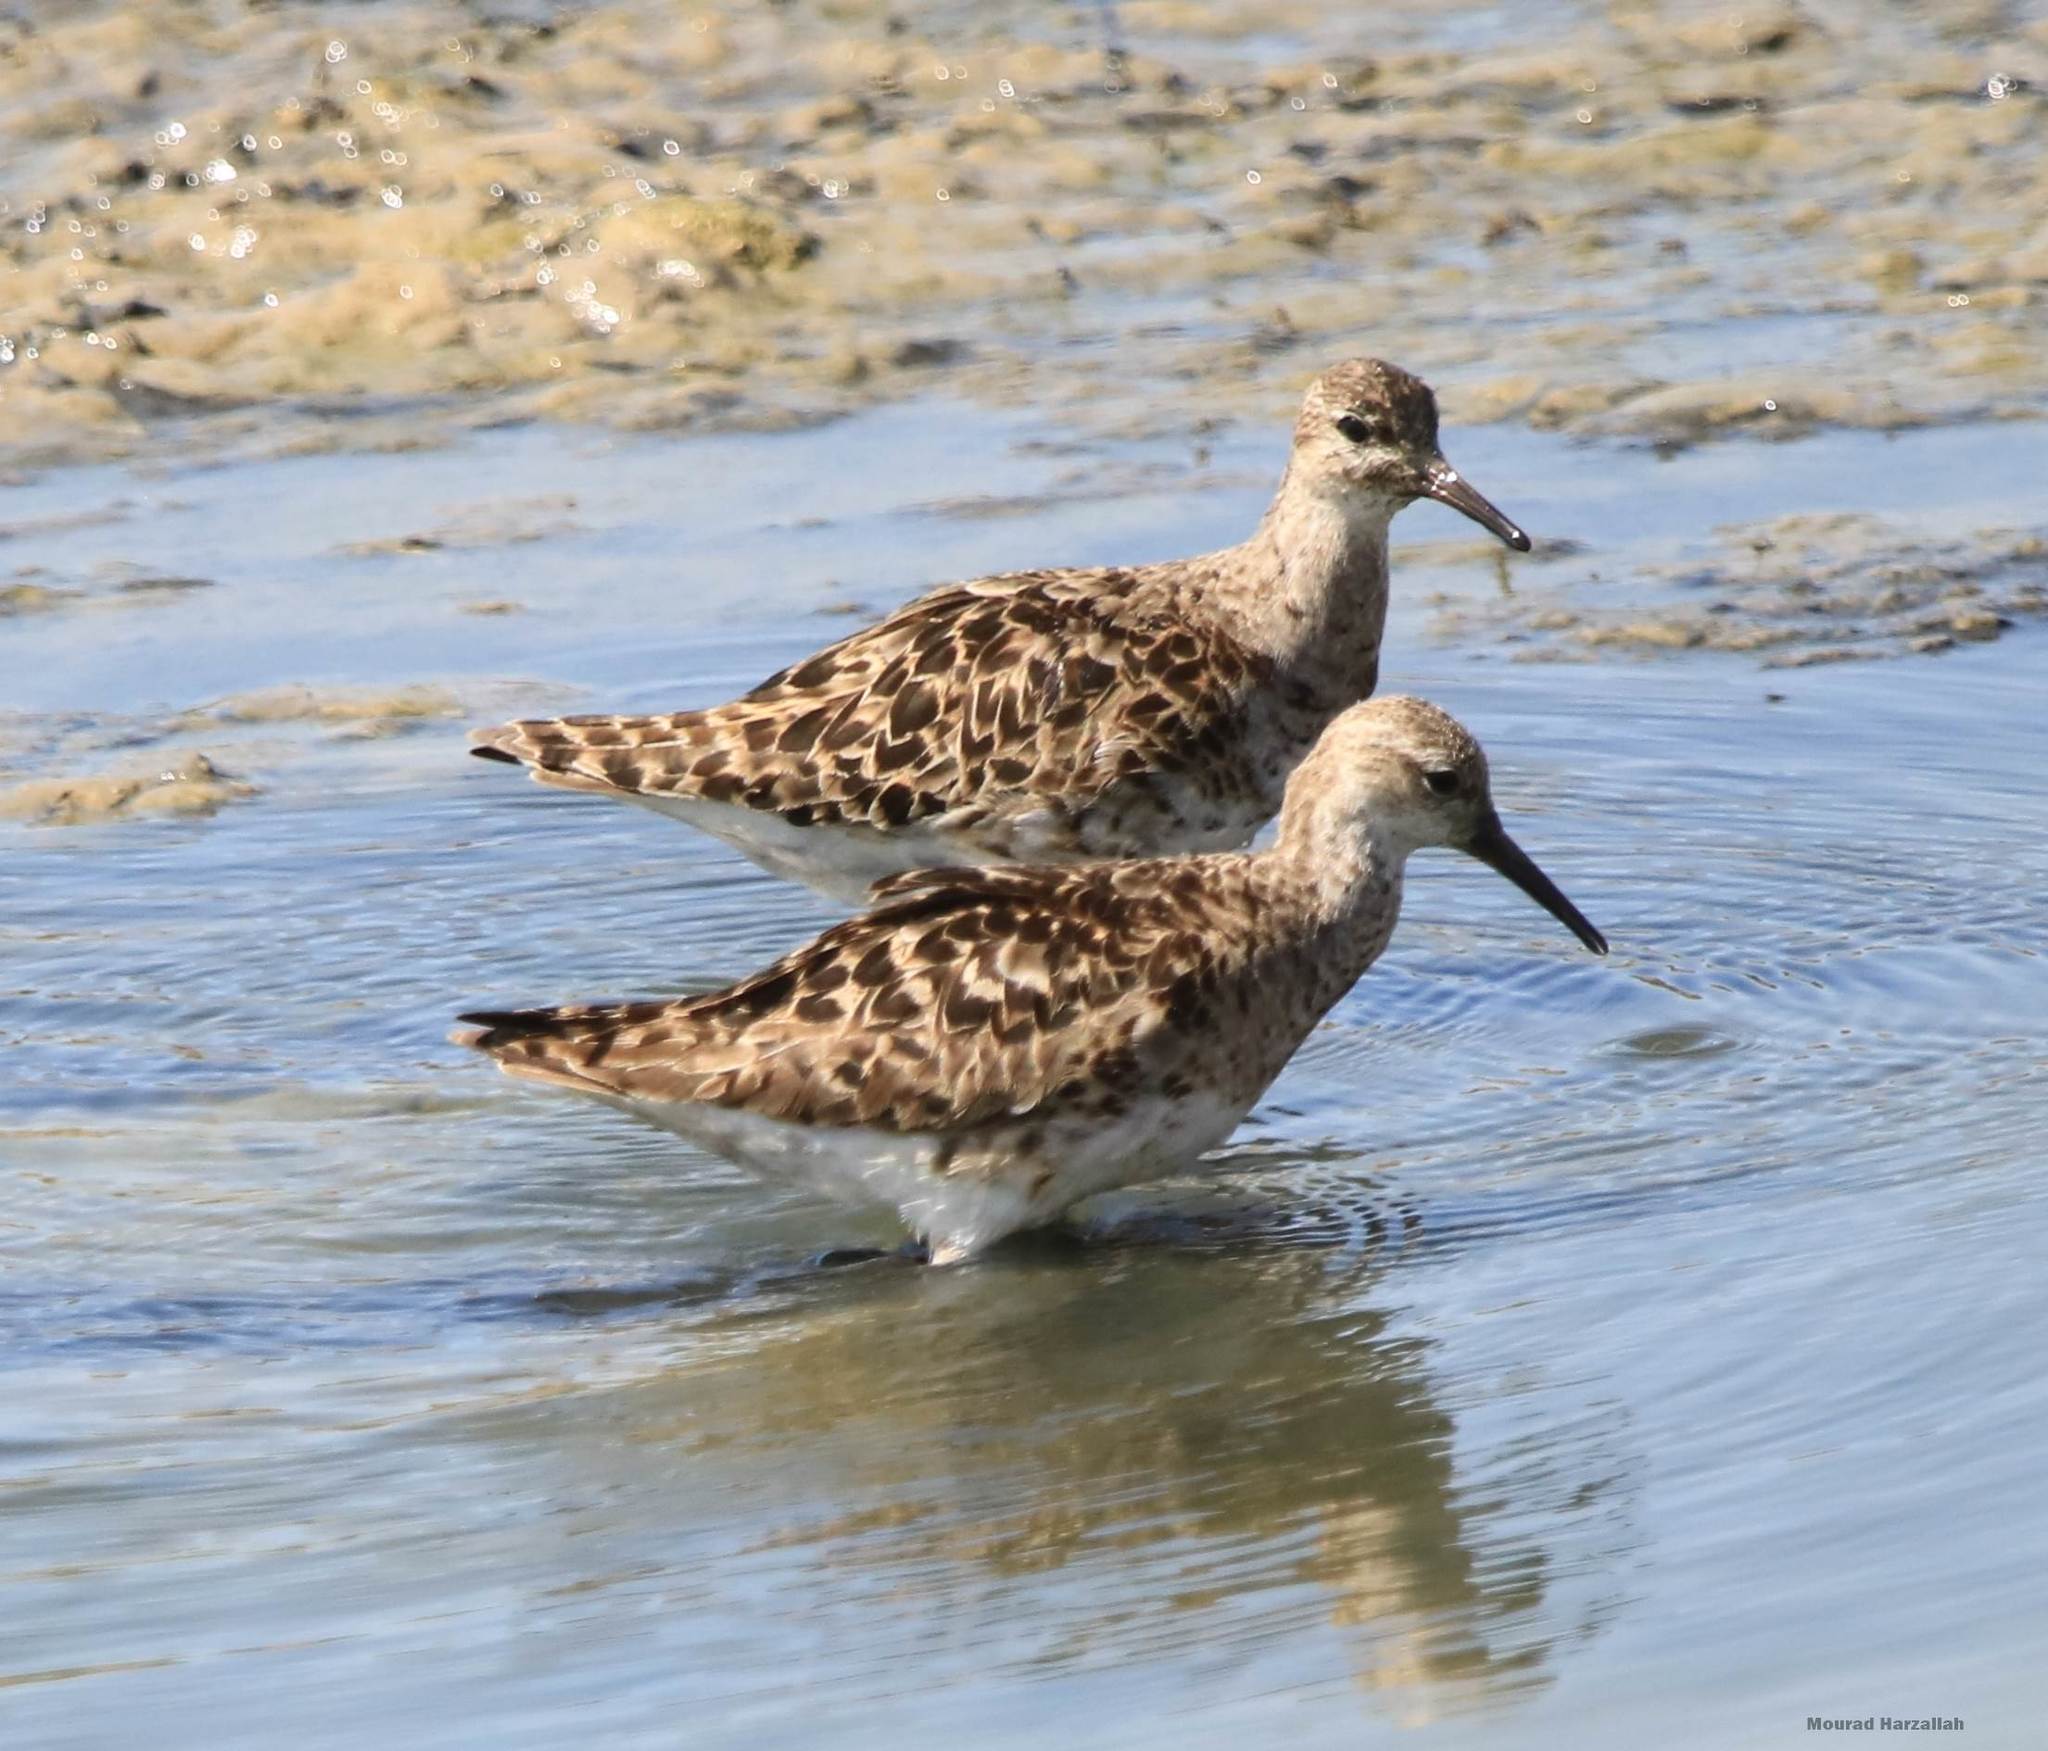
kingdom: Animalia
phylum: Chordata
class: Aves
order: Charadriiformes
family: Scolopacidae
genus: Calidris
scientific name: Calidris pugnax
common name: Ruff
